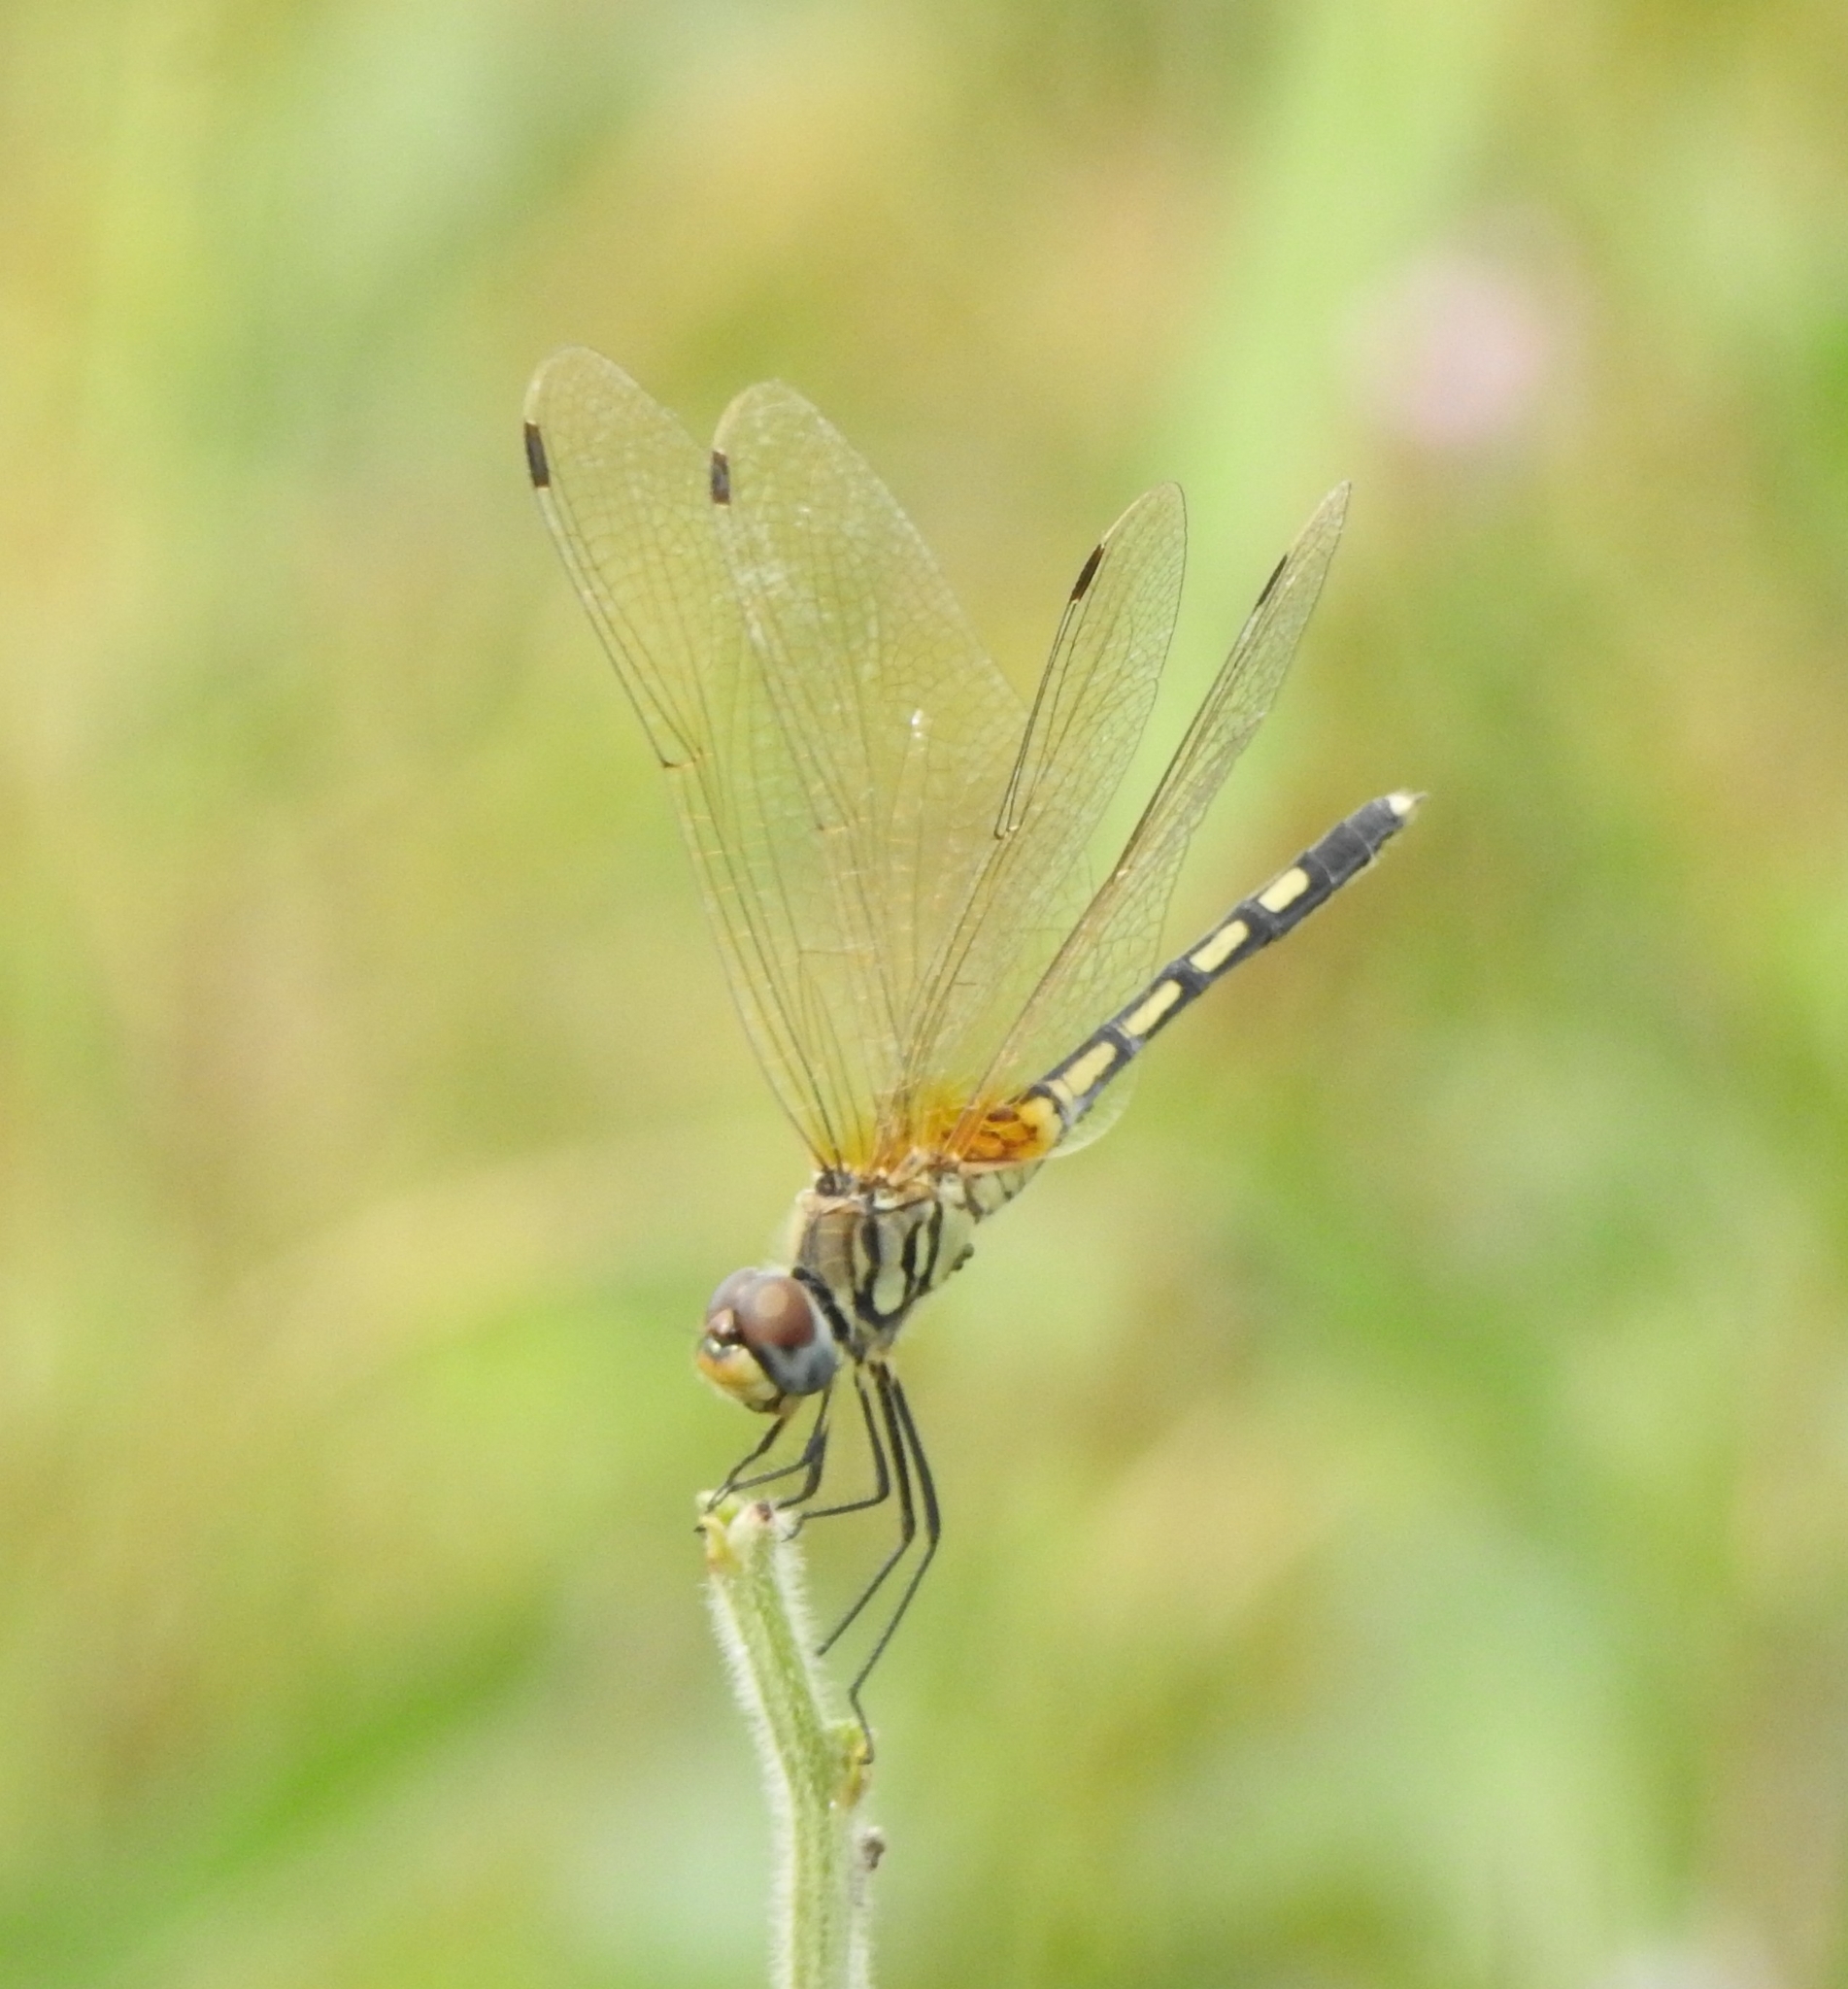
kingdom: Animalia
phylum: Arthropoda
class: Insecta
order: Odonata
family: Libellulidae
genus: Trithemis
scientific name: Trithemis pallidinervis
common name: Dancing dropwing
